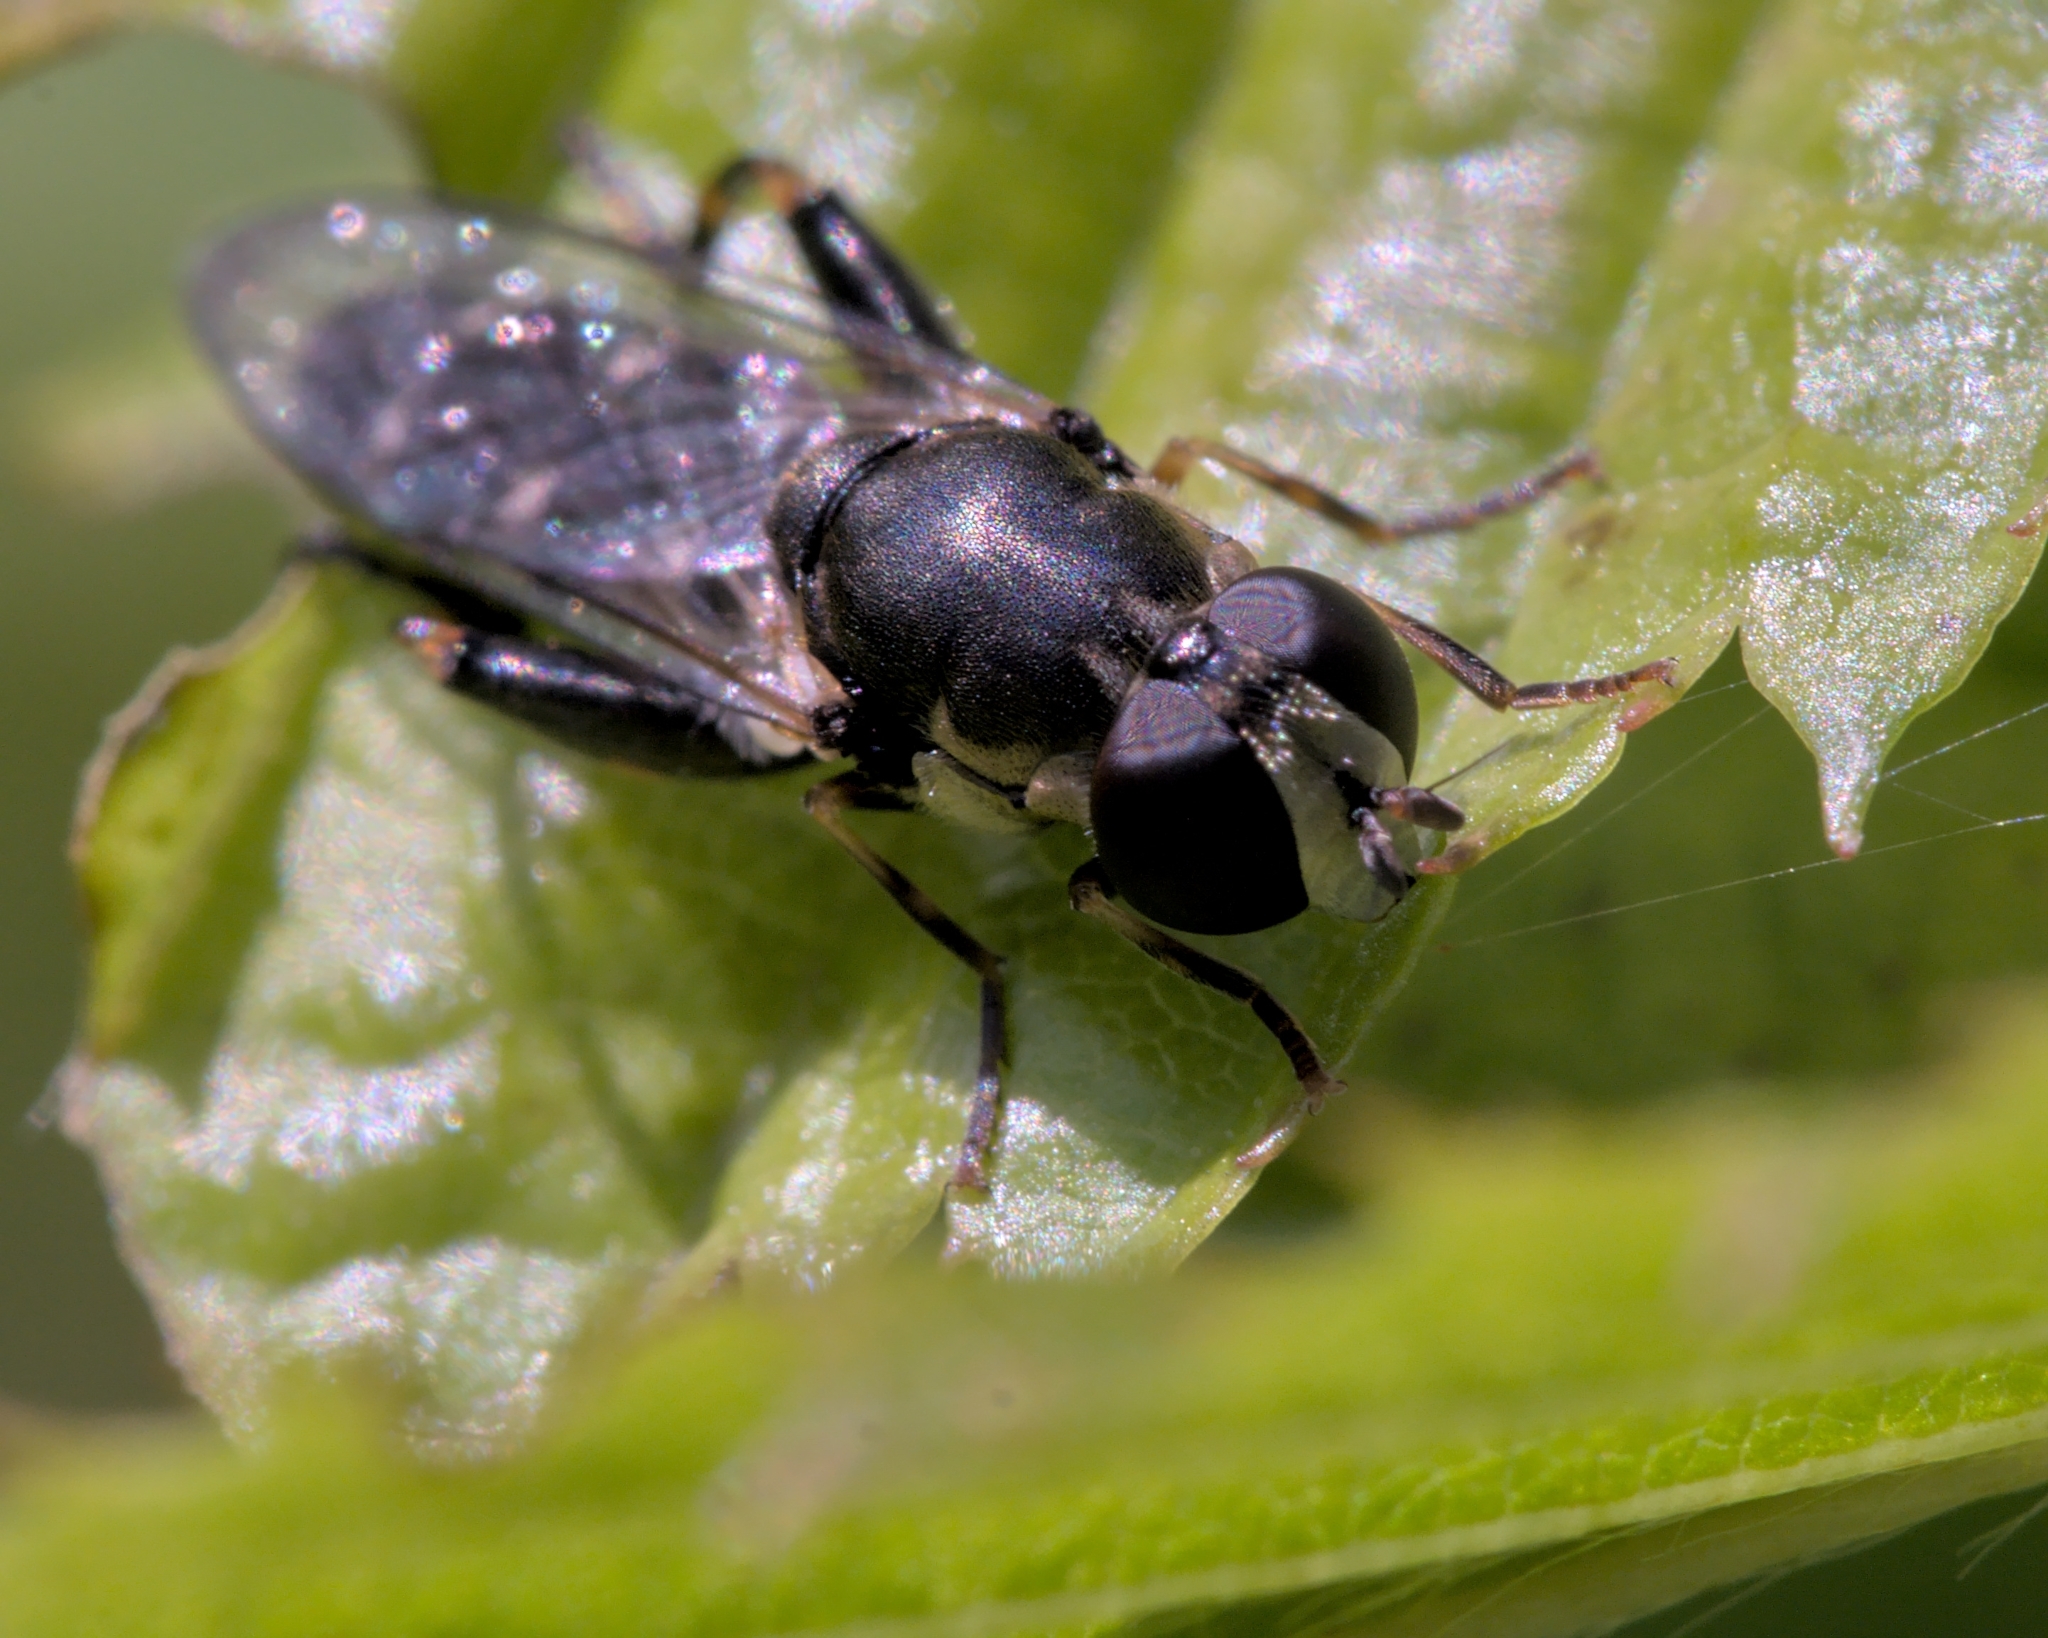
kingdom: Animalia
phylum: Arthropoda
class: Insecta
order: Diptera
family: Syrphidae
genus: Syritta
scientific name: Syritta pipiens
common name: Hover fly
